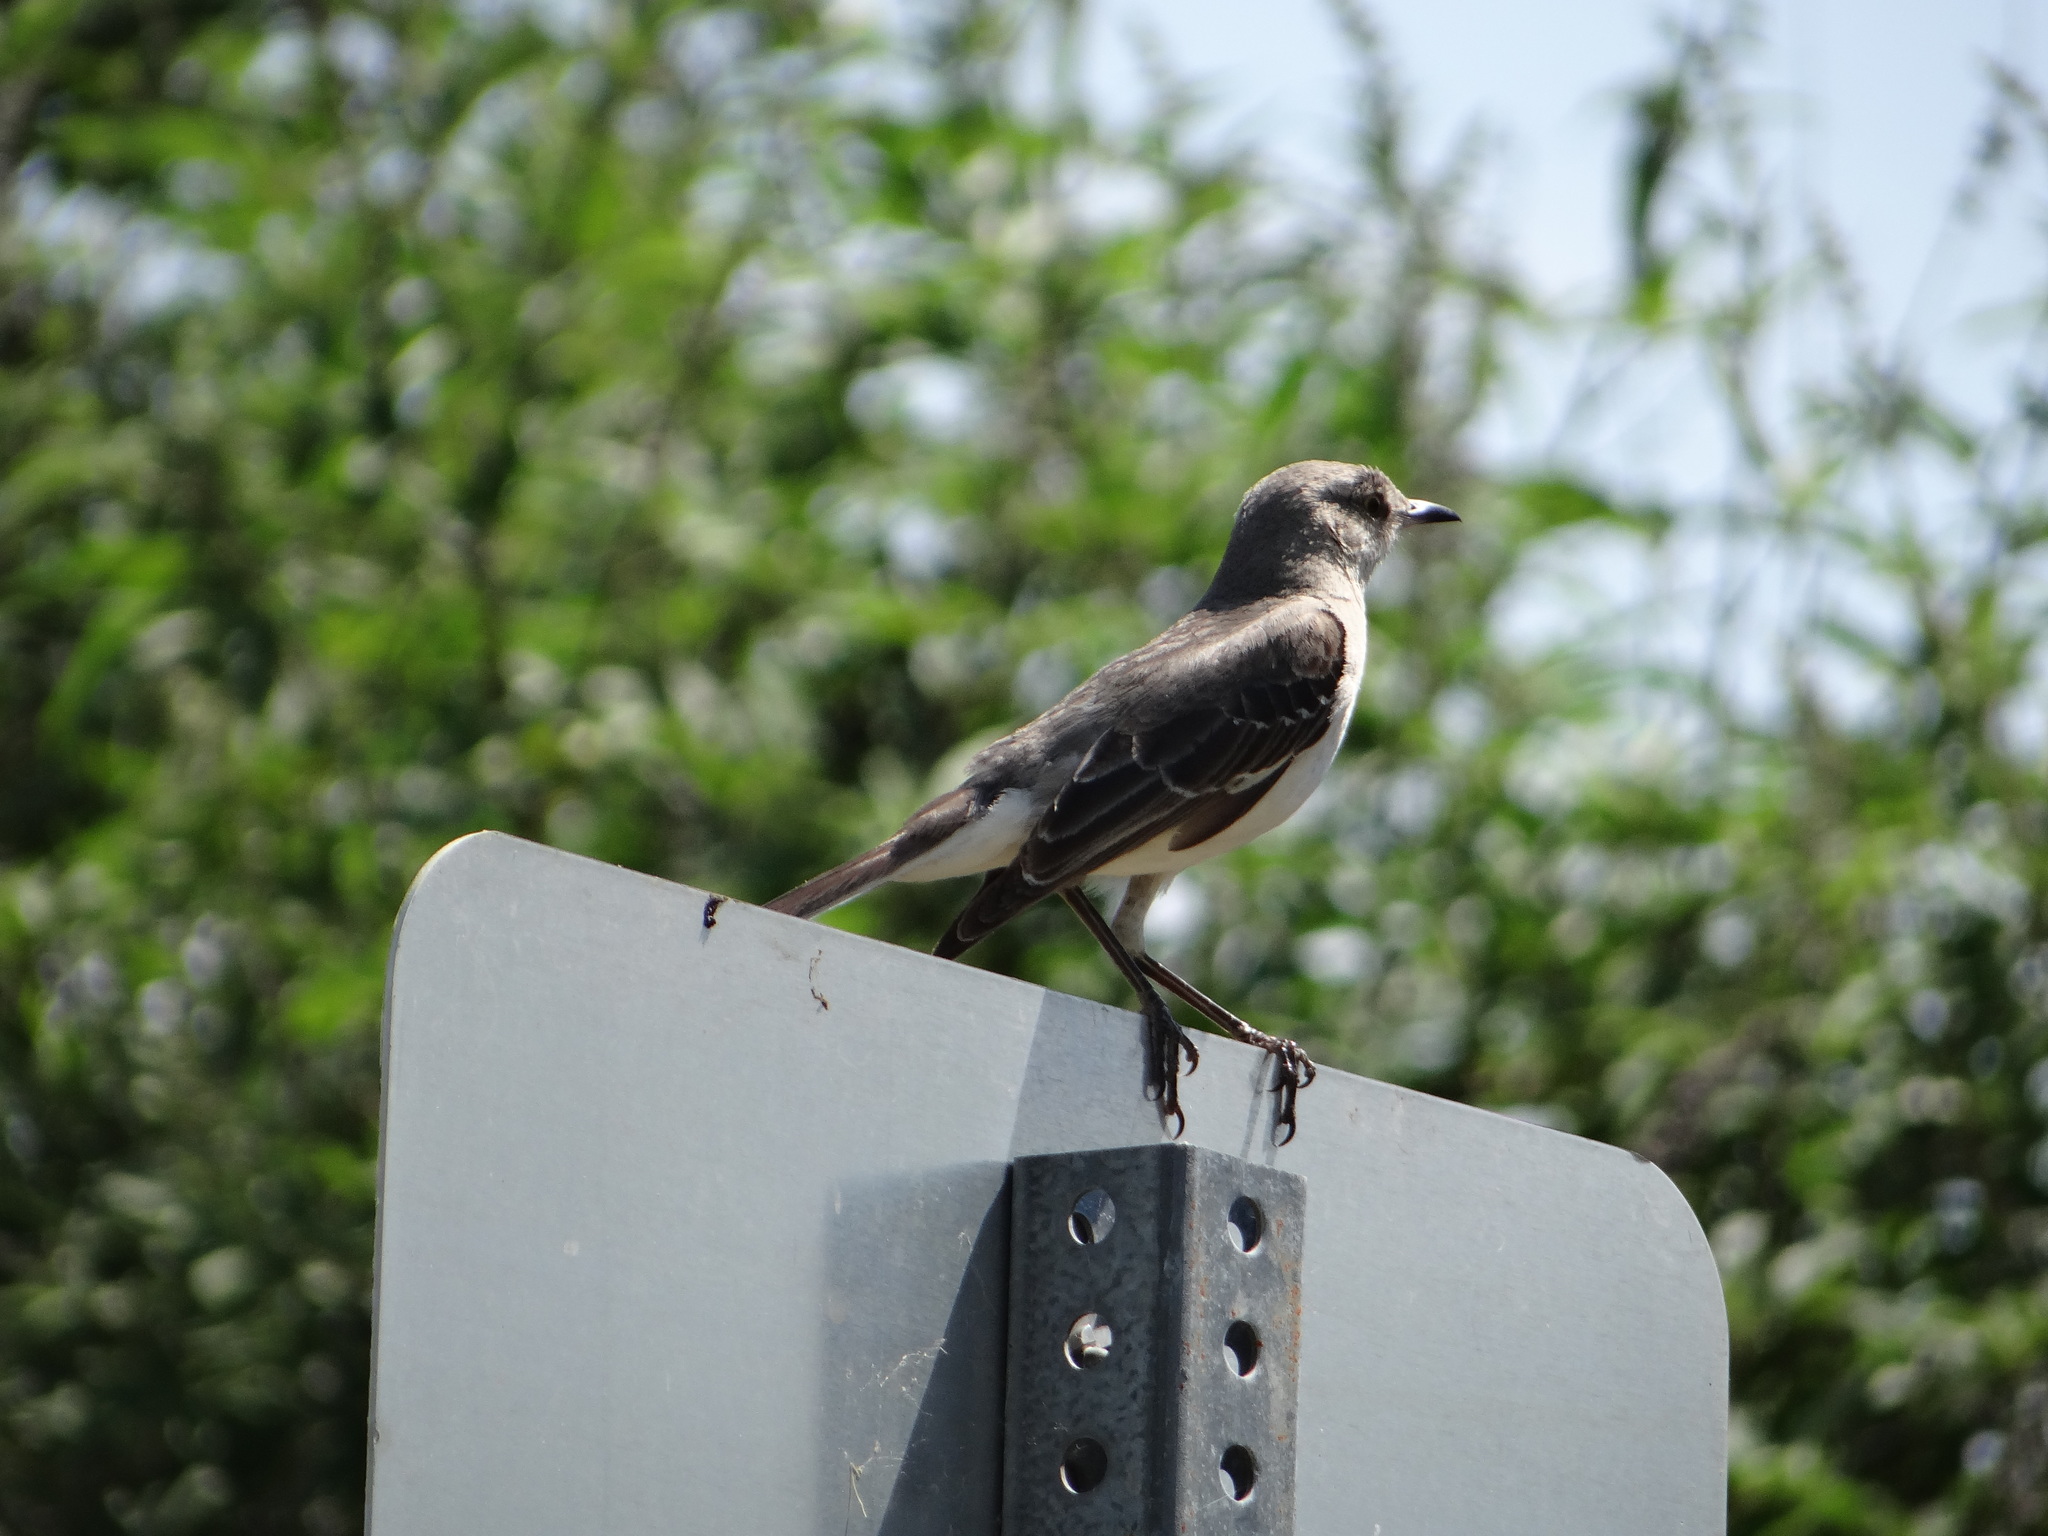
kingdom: Animalia
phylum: Chordata
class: Aves
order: Passeriformes
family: Mimidae
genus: Mimus
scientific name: Mimus polyglottos
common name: Northern mockingbird
